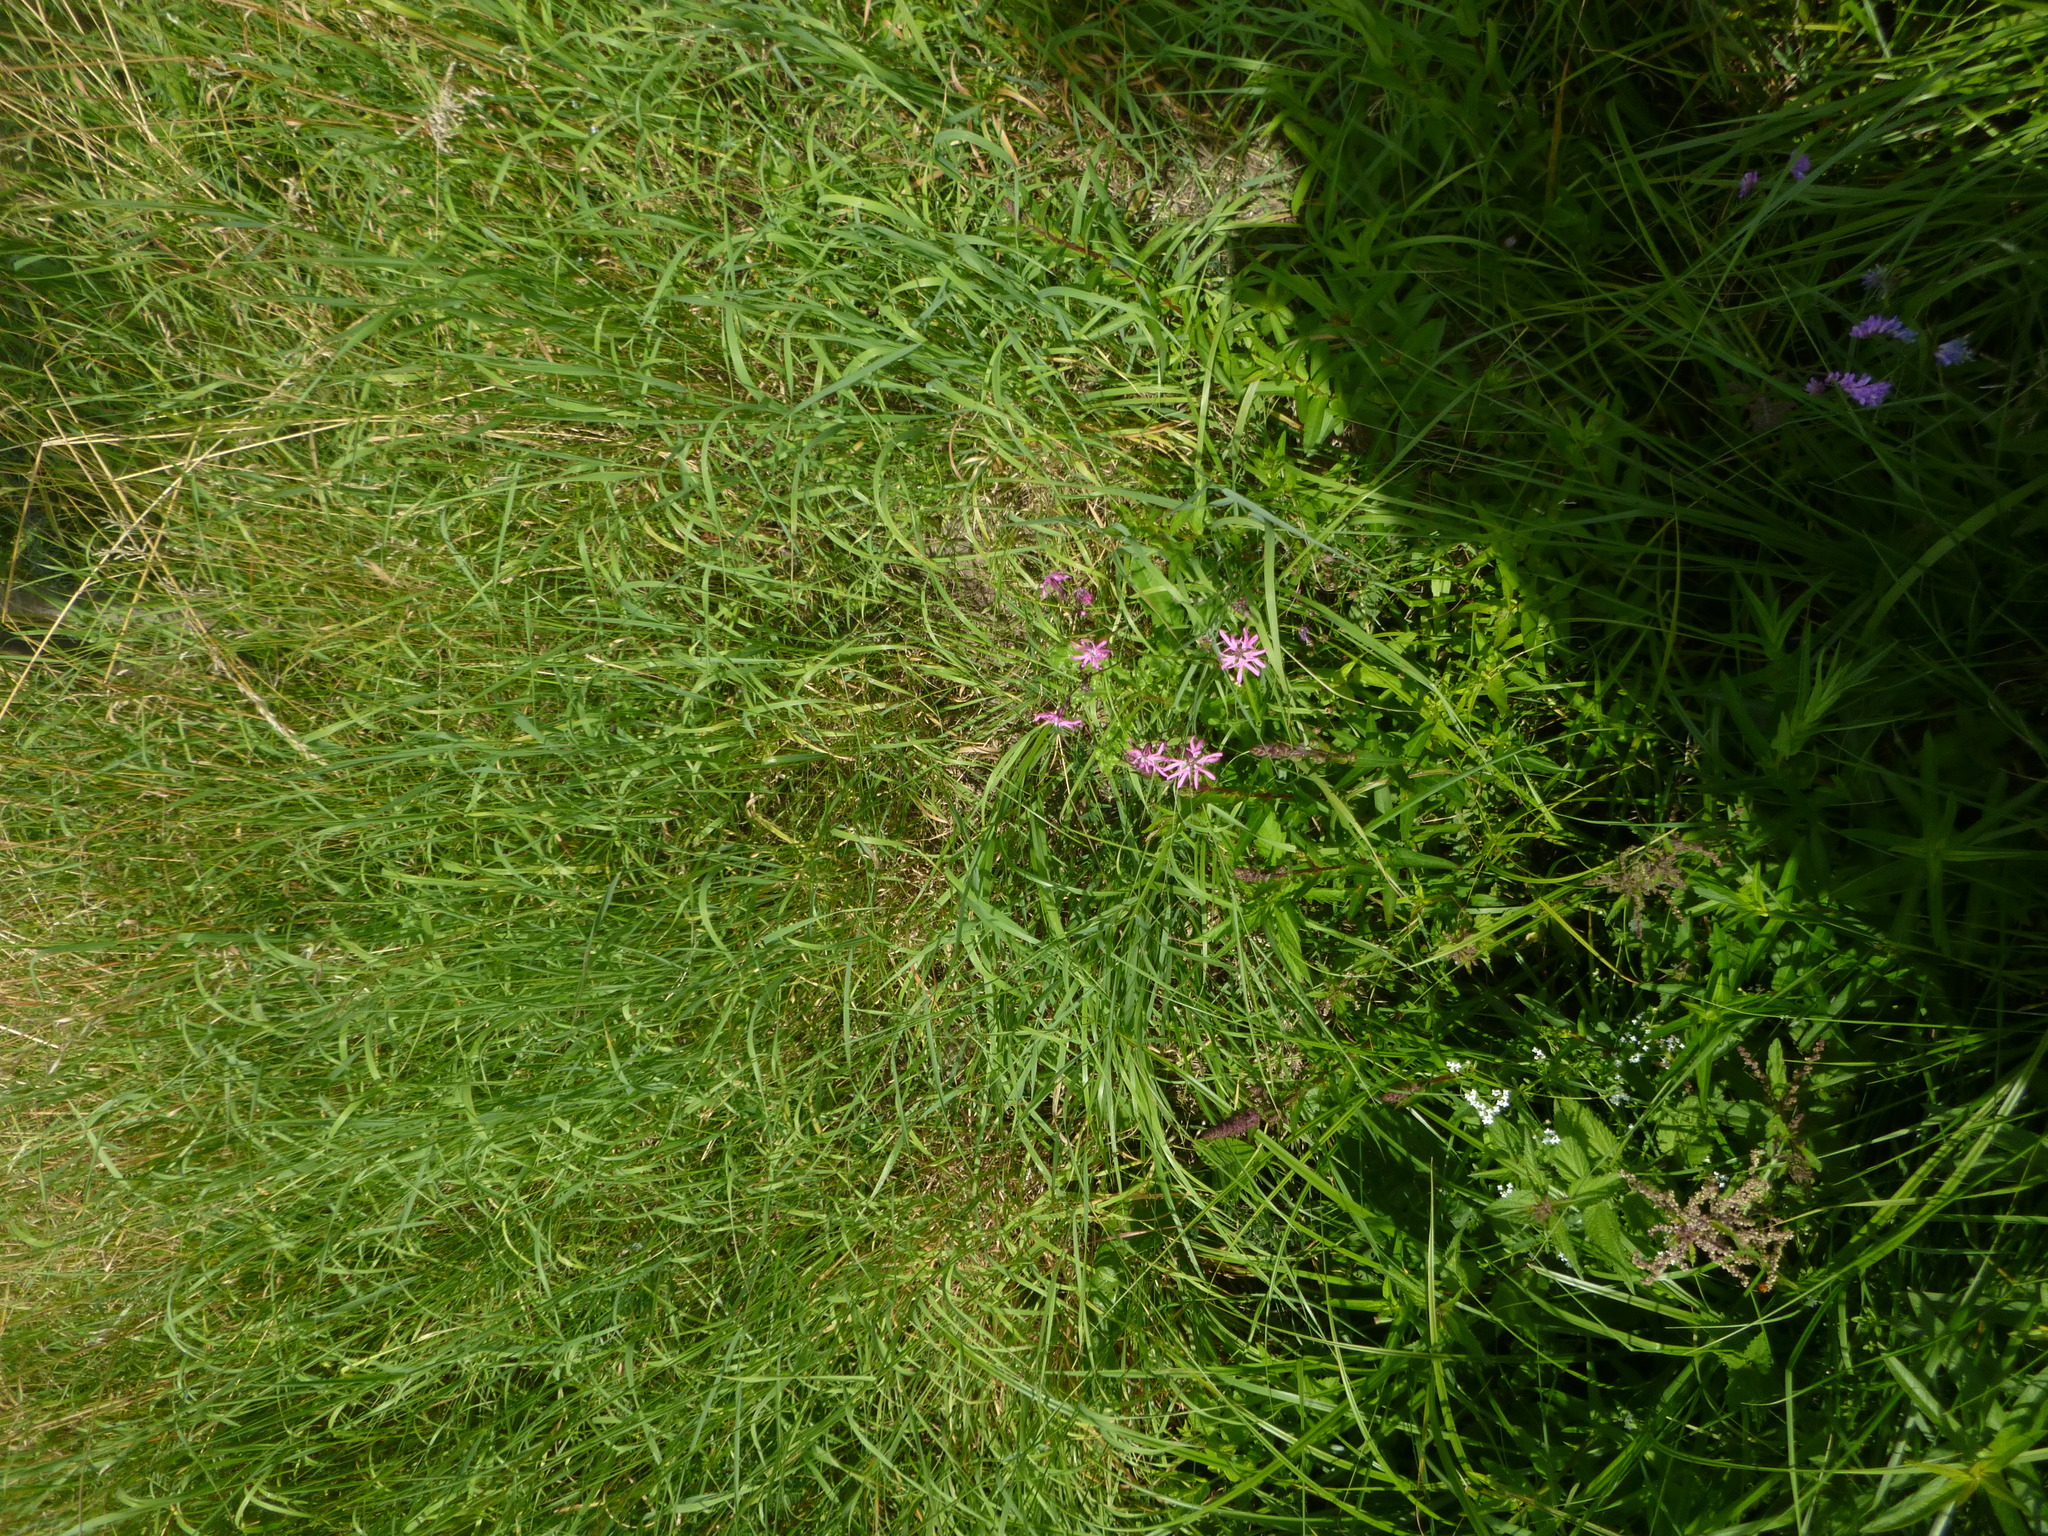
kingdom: Plantae
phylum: Tracheophyta
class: Magnoliopsida
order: Caryophyllales
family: Caryophyllaceae
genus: Silene
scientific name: Silene flos-cuculi
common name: Ragged-robin
